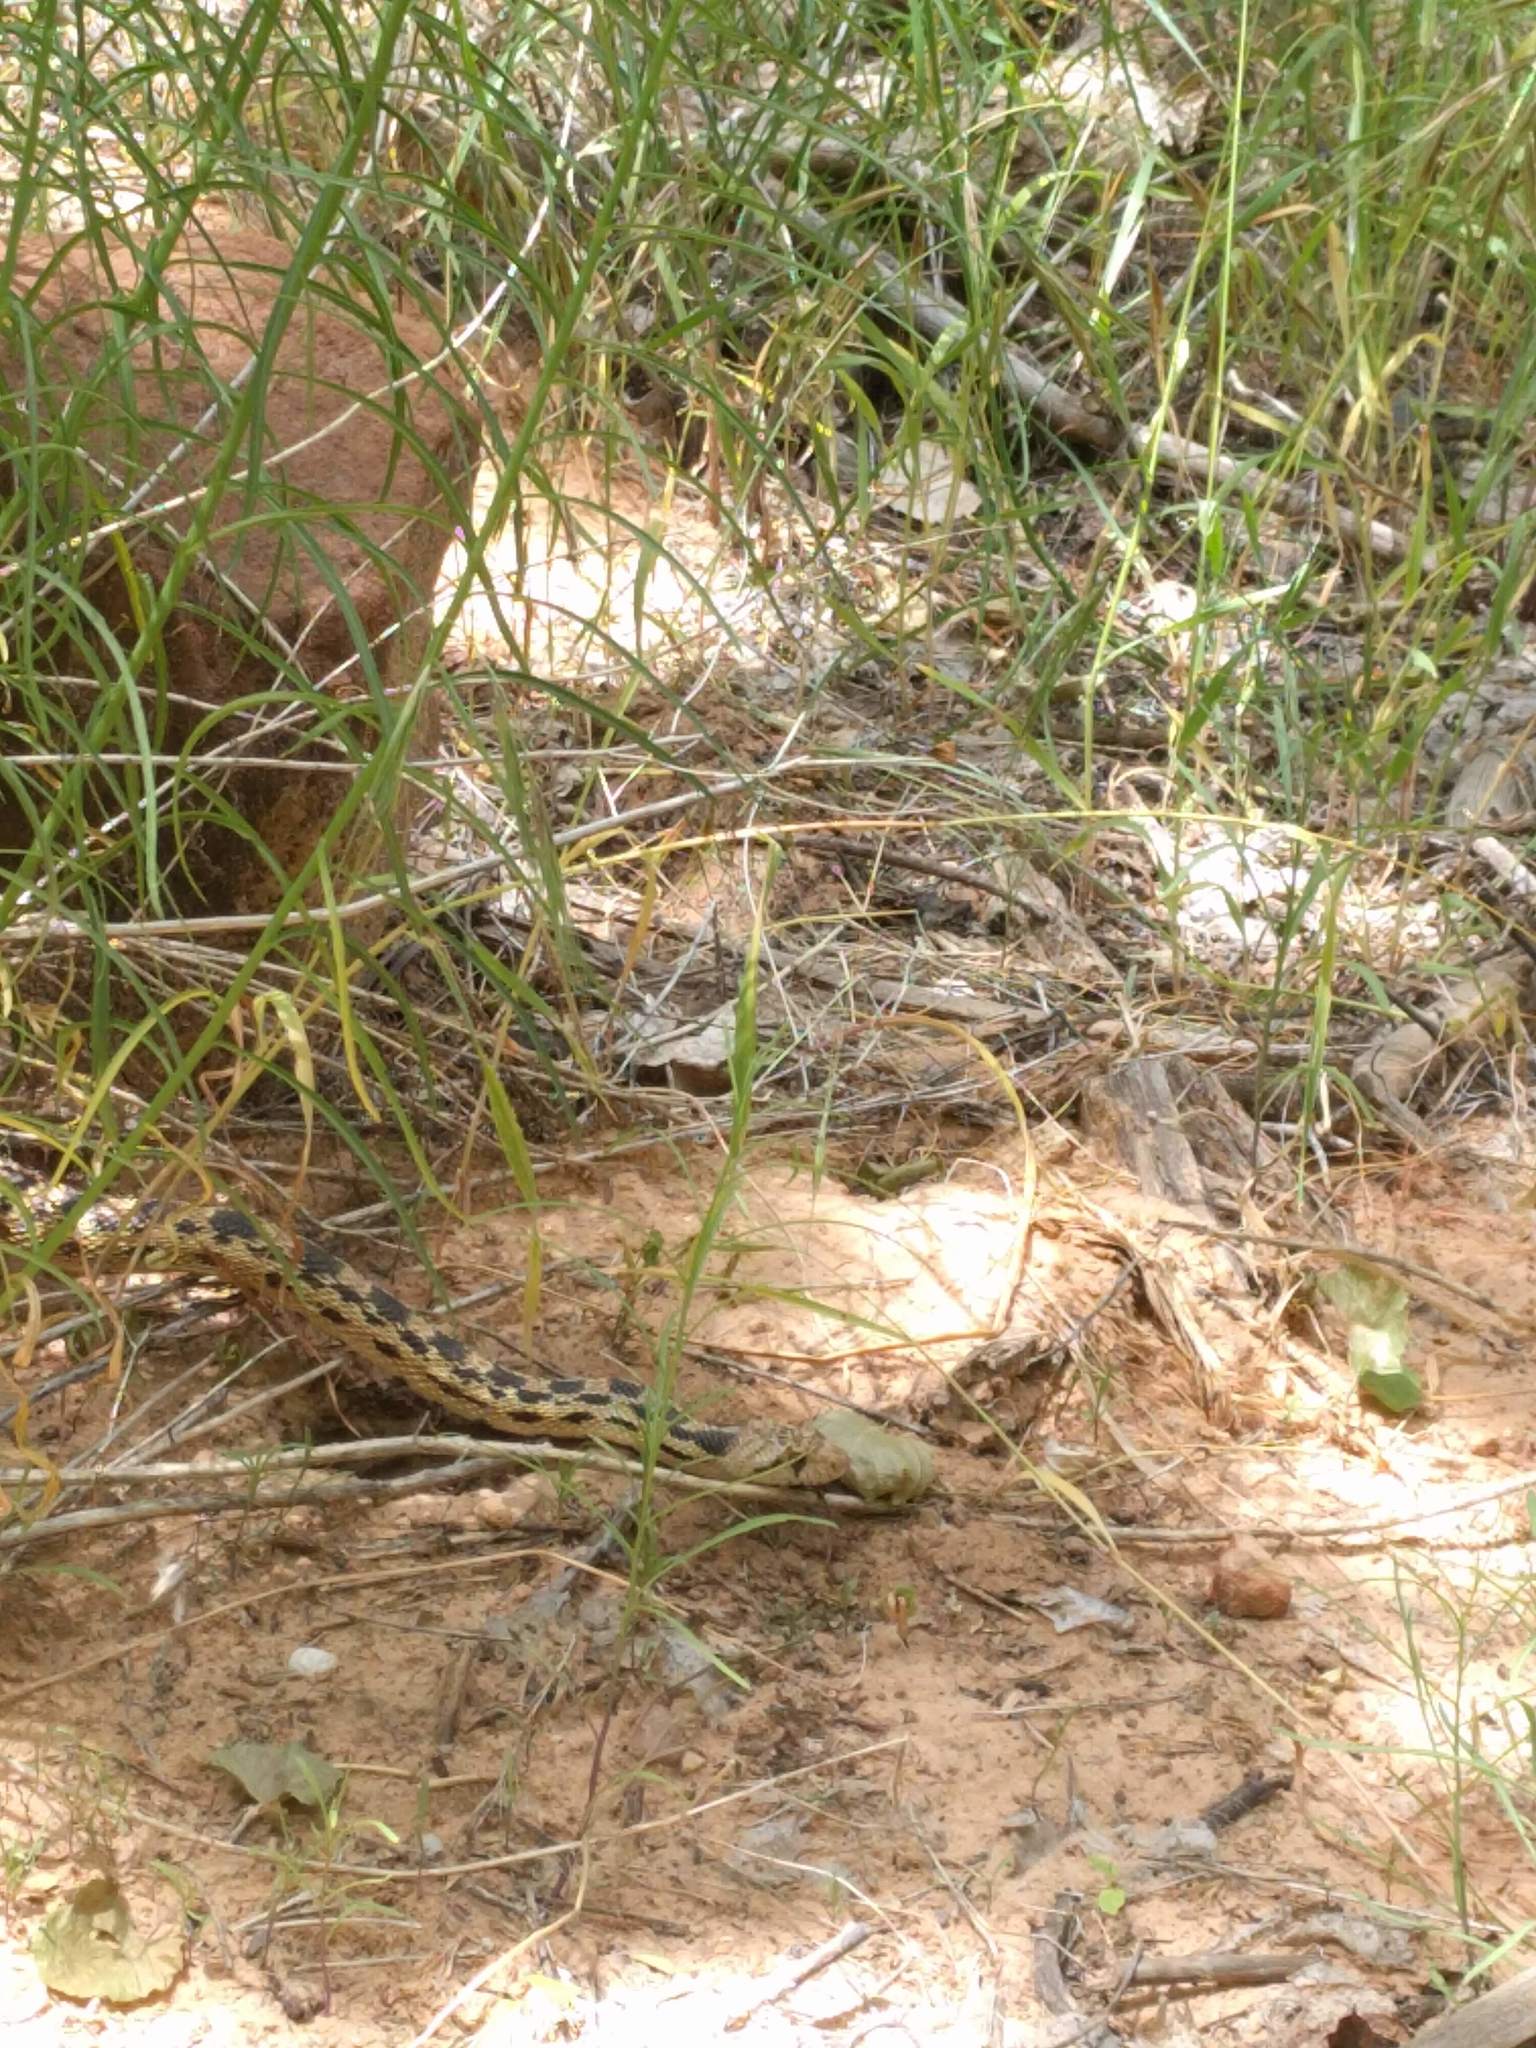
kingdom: Animalia
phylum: Chordata
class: Squamata
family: Colubridae
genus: Pituophis
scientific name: Pituophis catenifer
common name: Gopher snake
